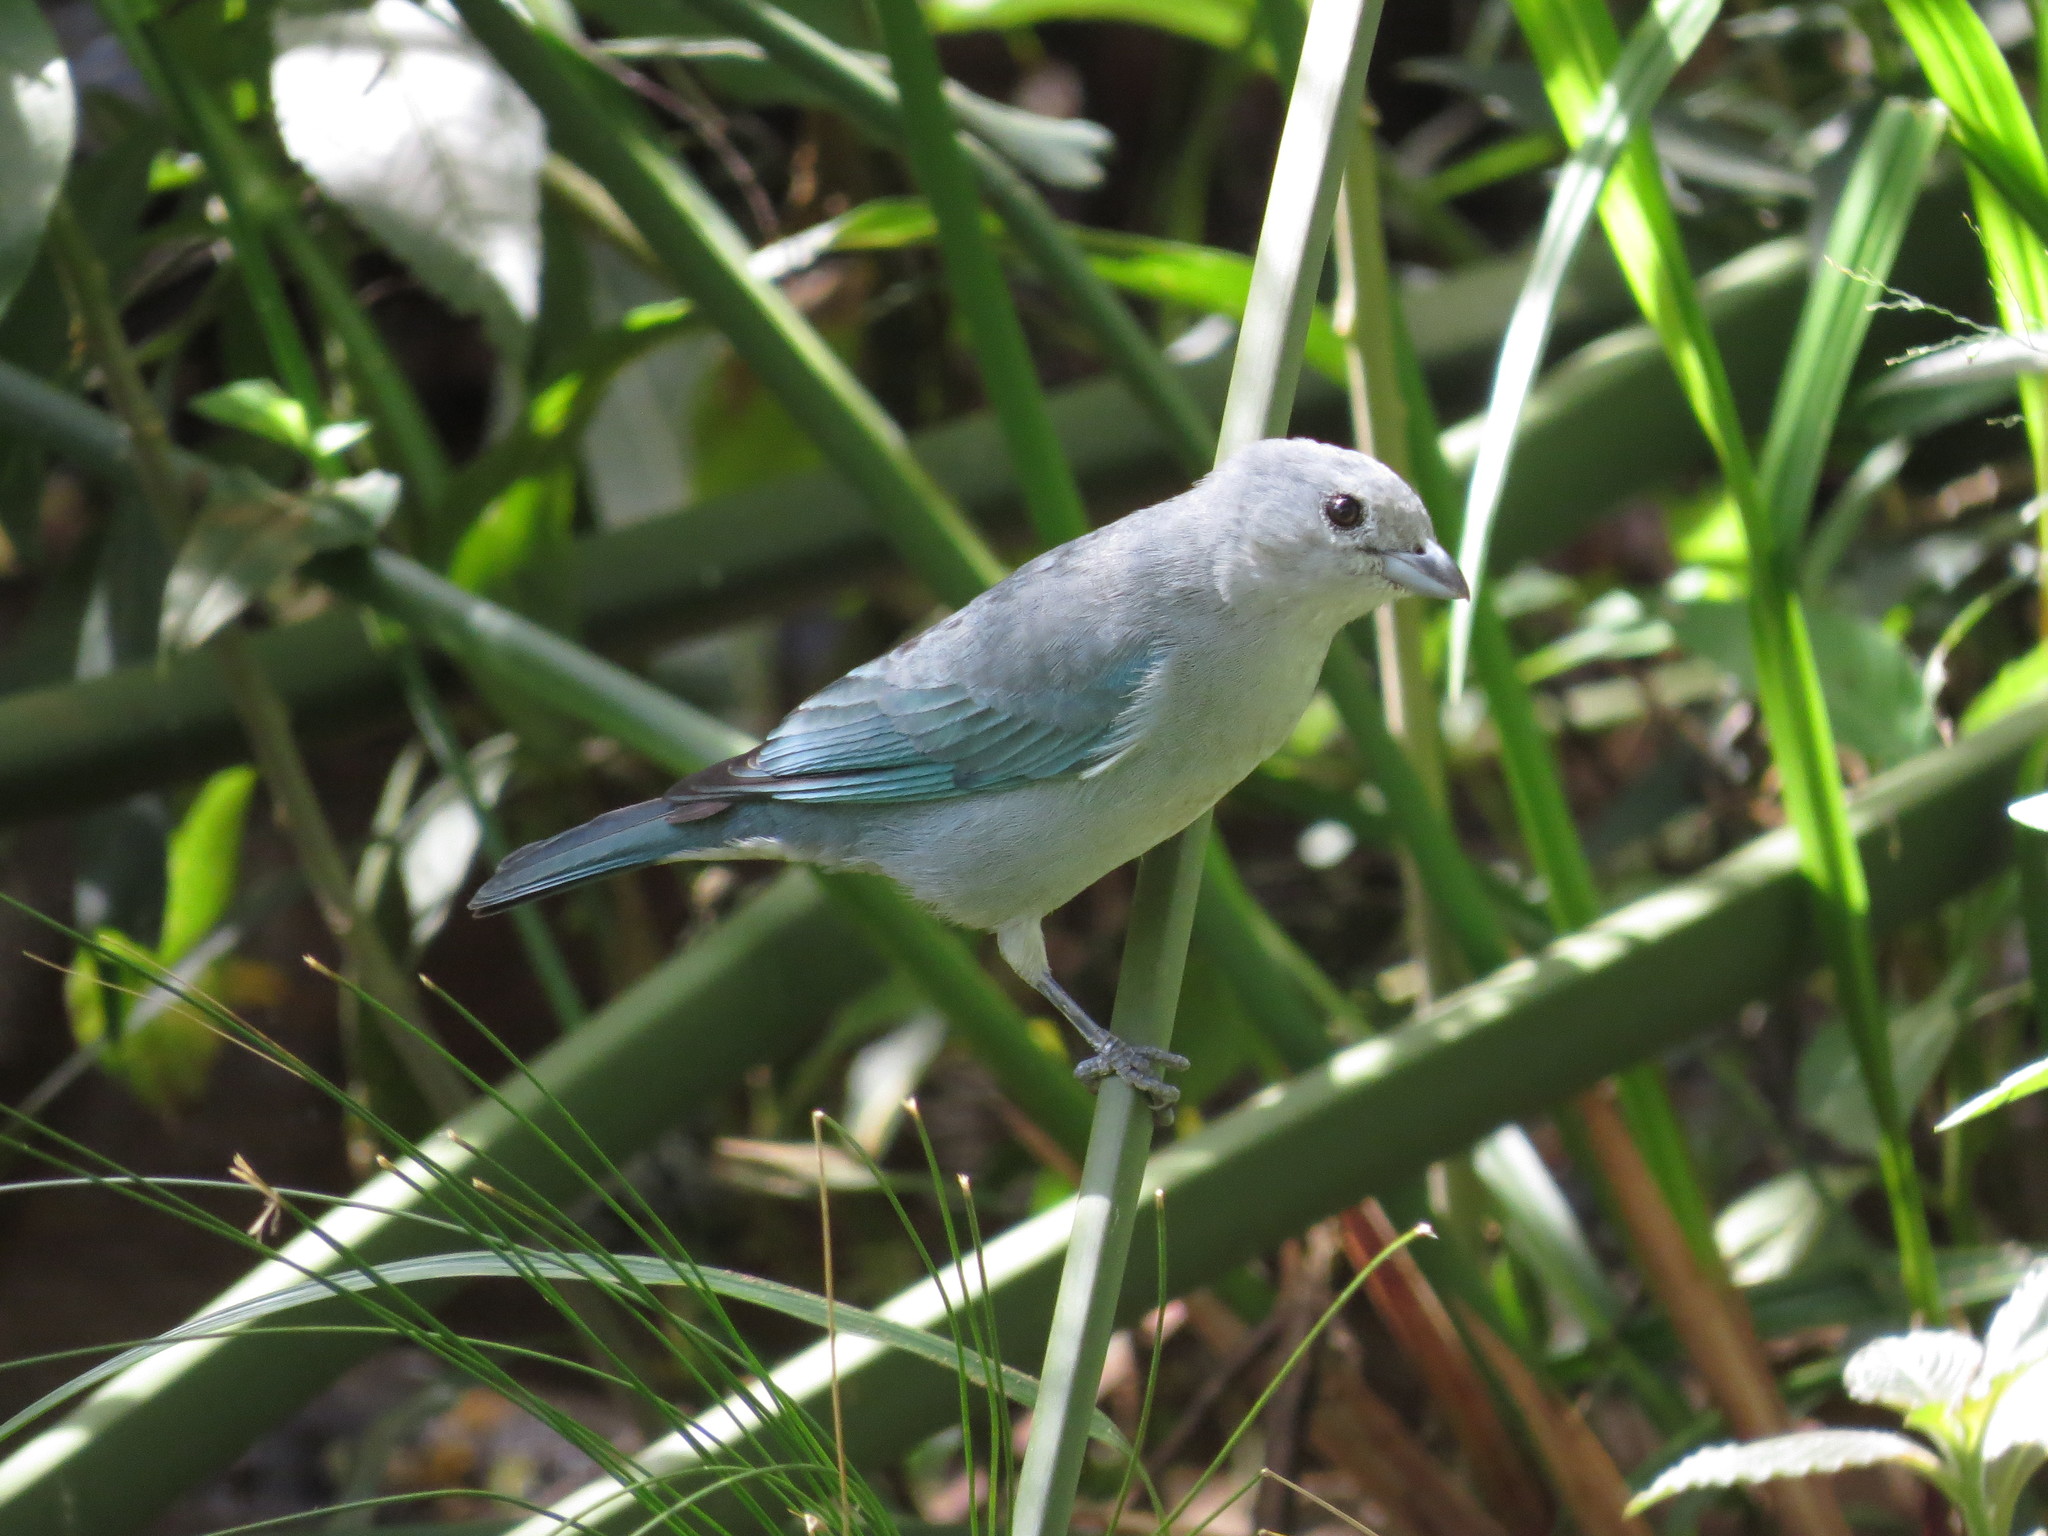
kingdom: Animalia
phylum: Chordata
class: Aves
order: Passeriformes
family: Thraupidae
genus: Thraupis
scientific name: Thraupis sayaca
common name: Sayaca tanager
